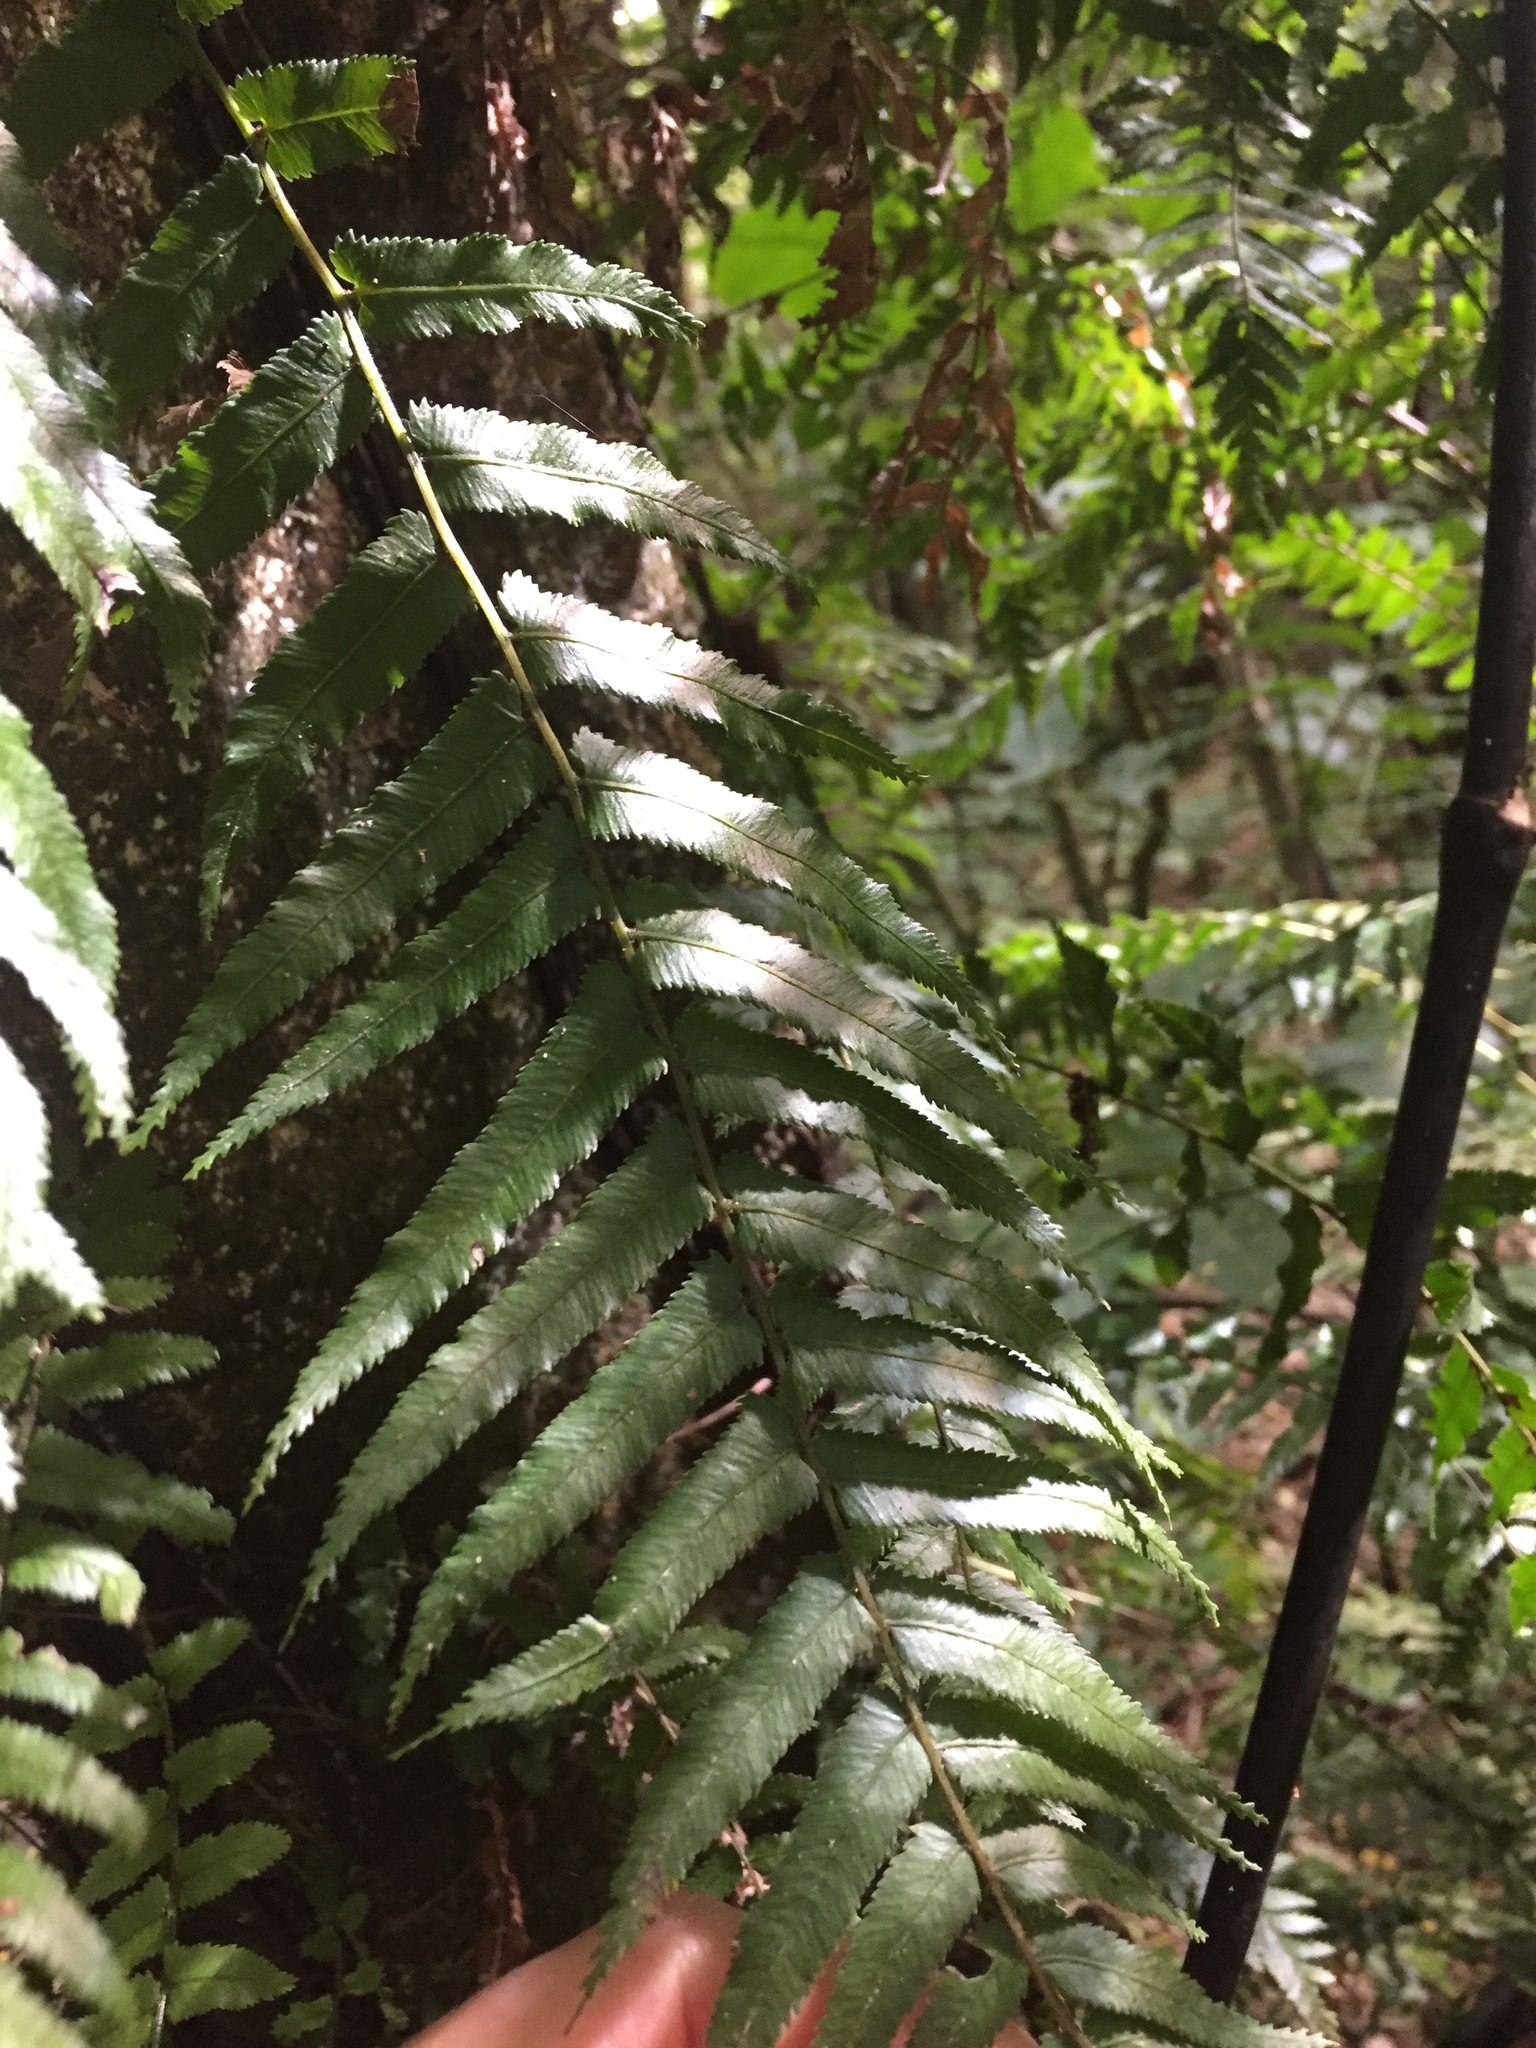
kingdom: Plantae
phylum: Tracheophyta
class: Polypodiopsida
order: Polypodiales
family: Blechnaceae
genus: Icarus
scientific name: Icarus filiformis
